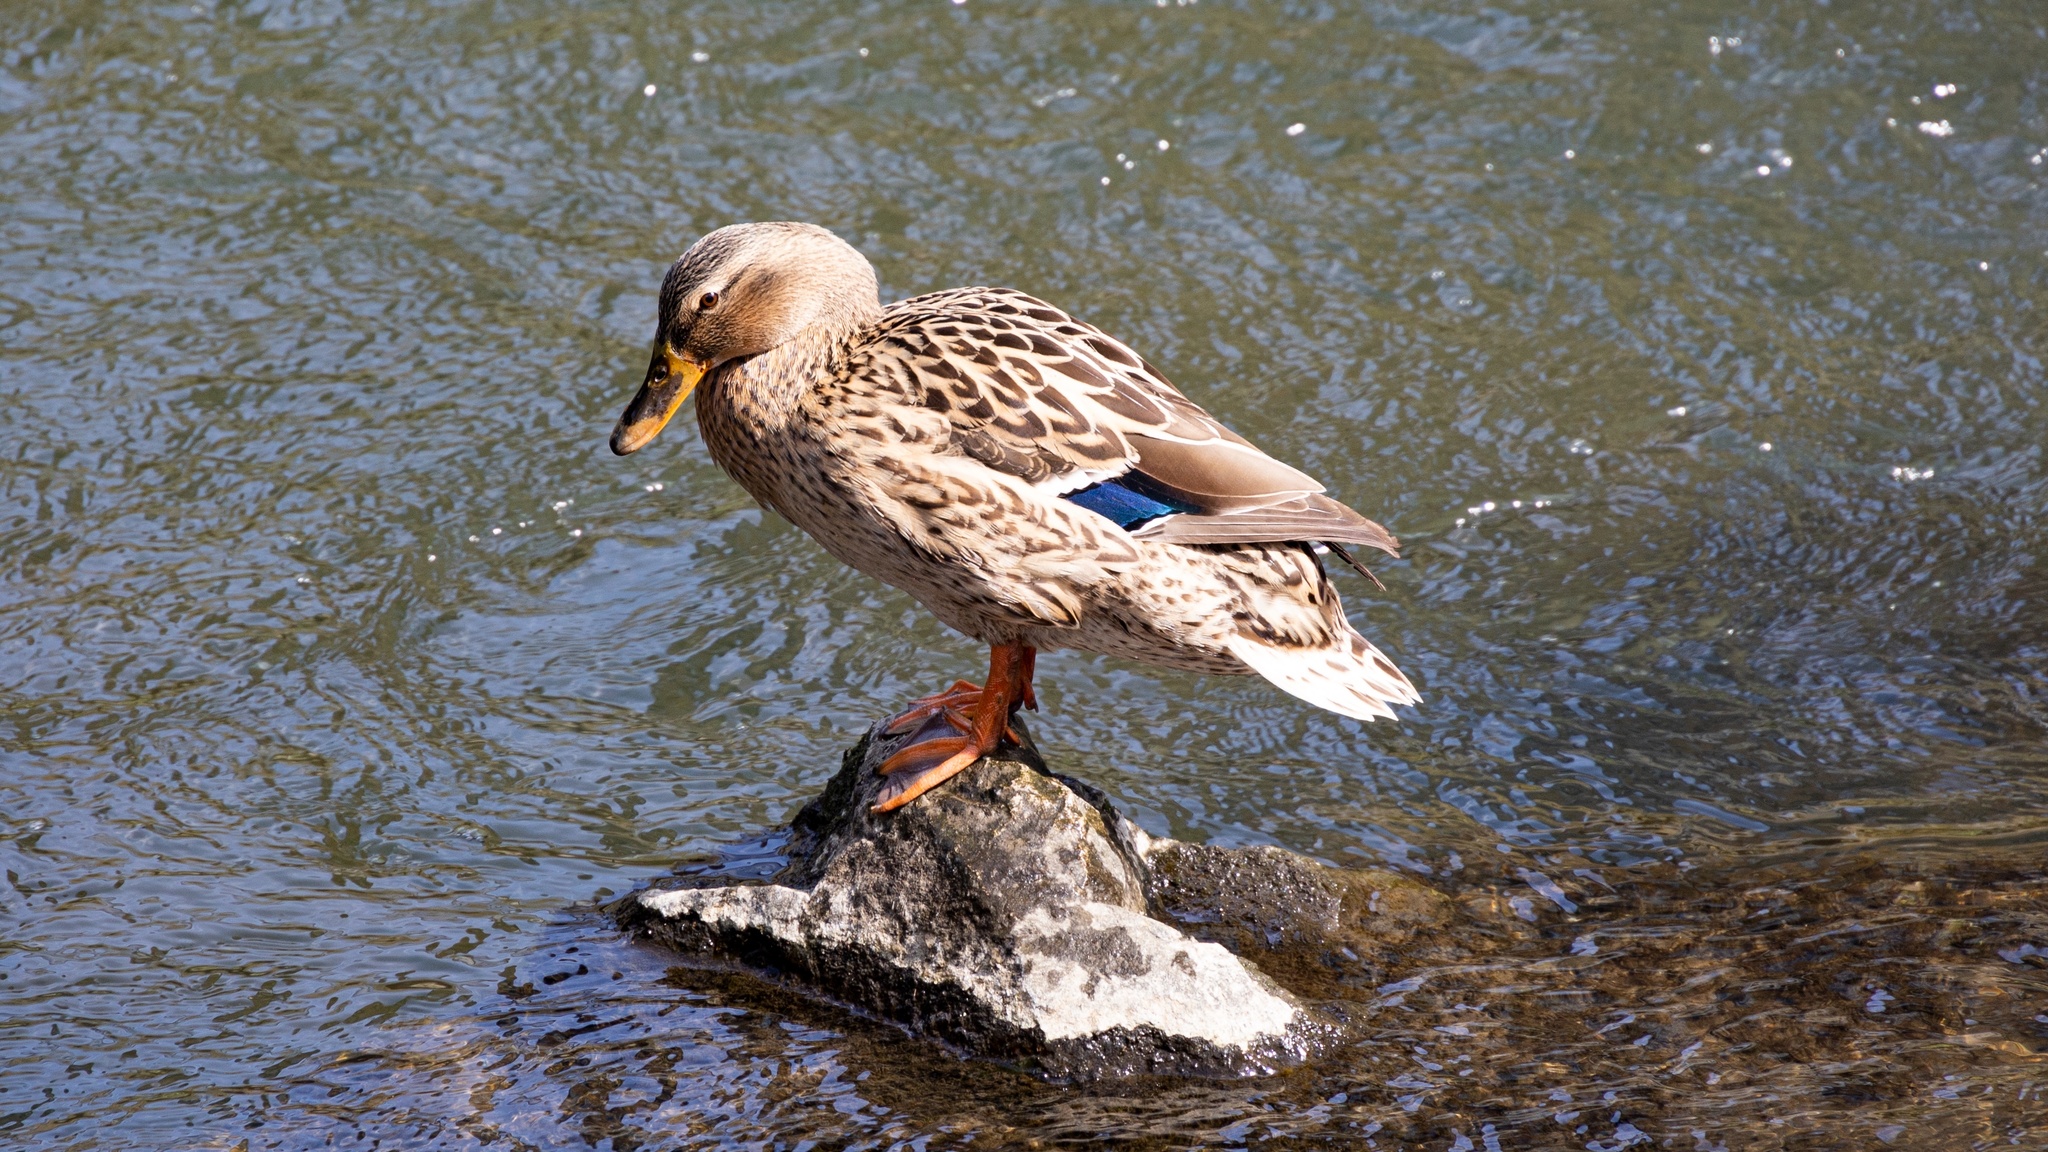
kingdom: Animalia
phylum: Chordata
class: Aves
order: Anseriformes
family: Anatidae
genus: Anas
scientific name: Anas platyrhynchos
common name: Mallard
